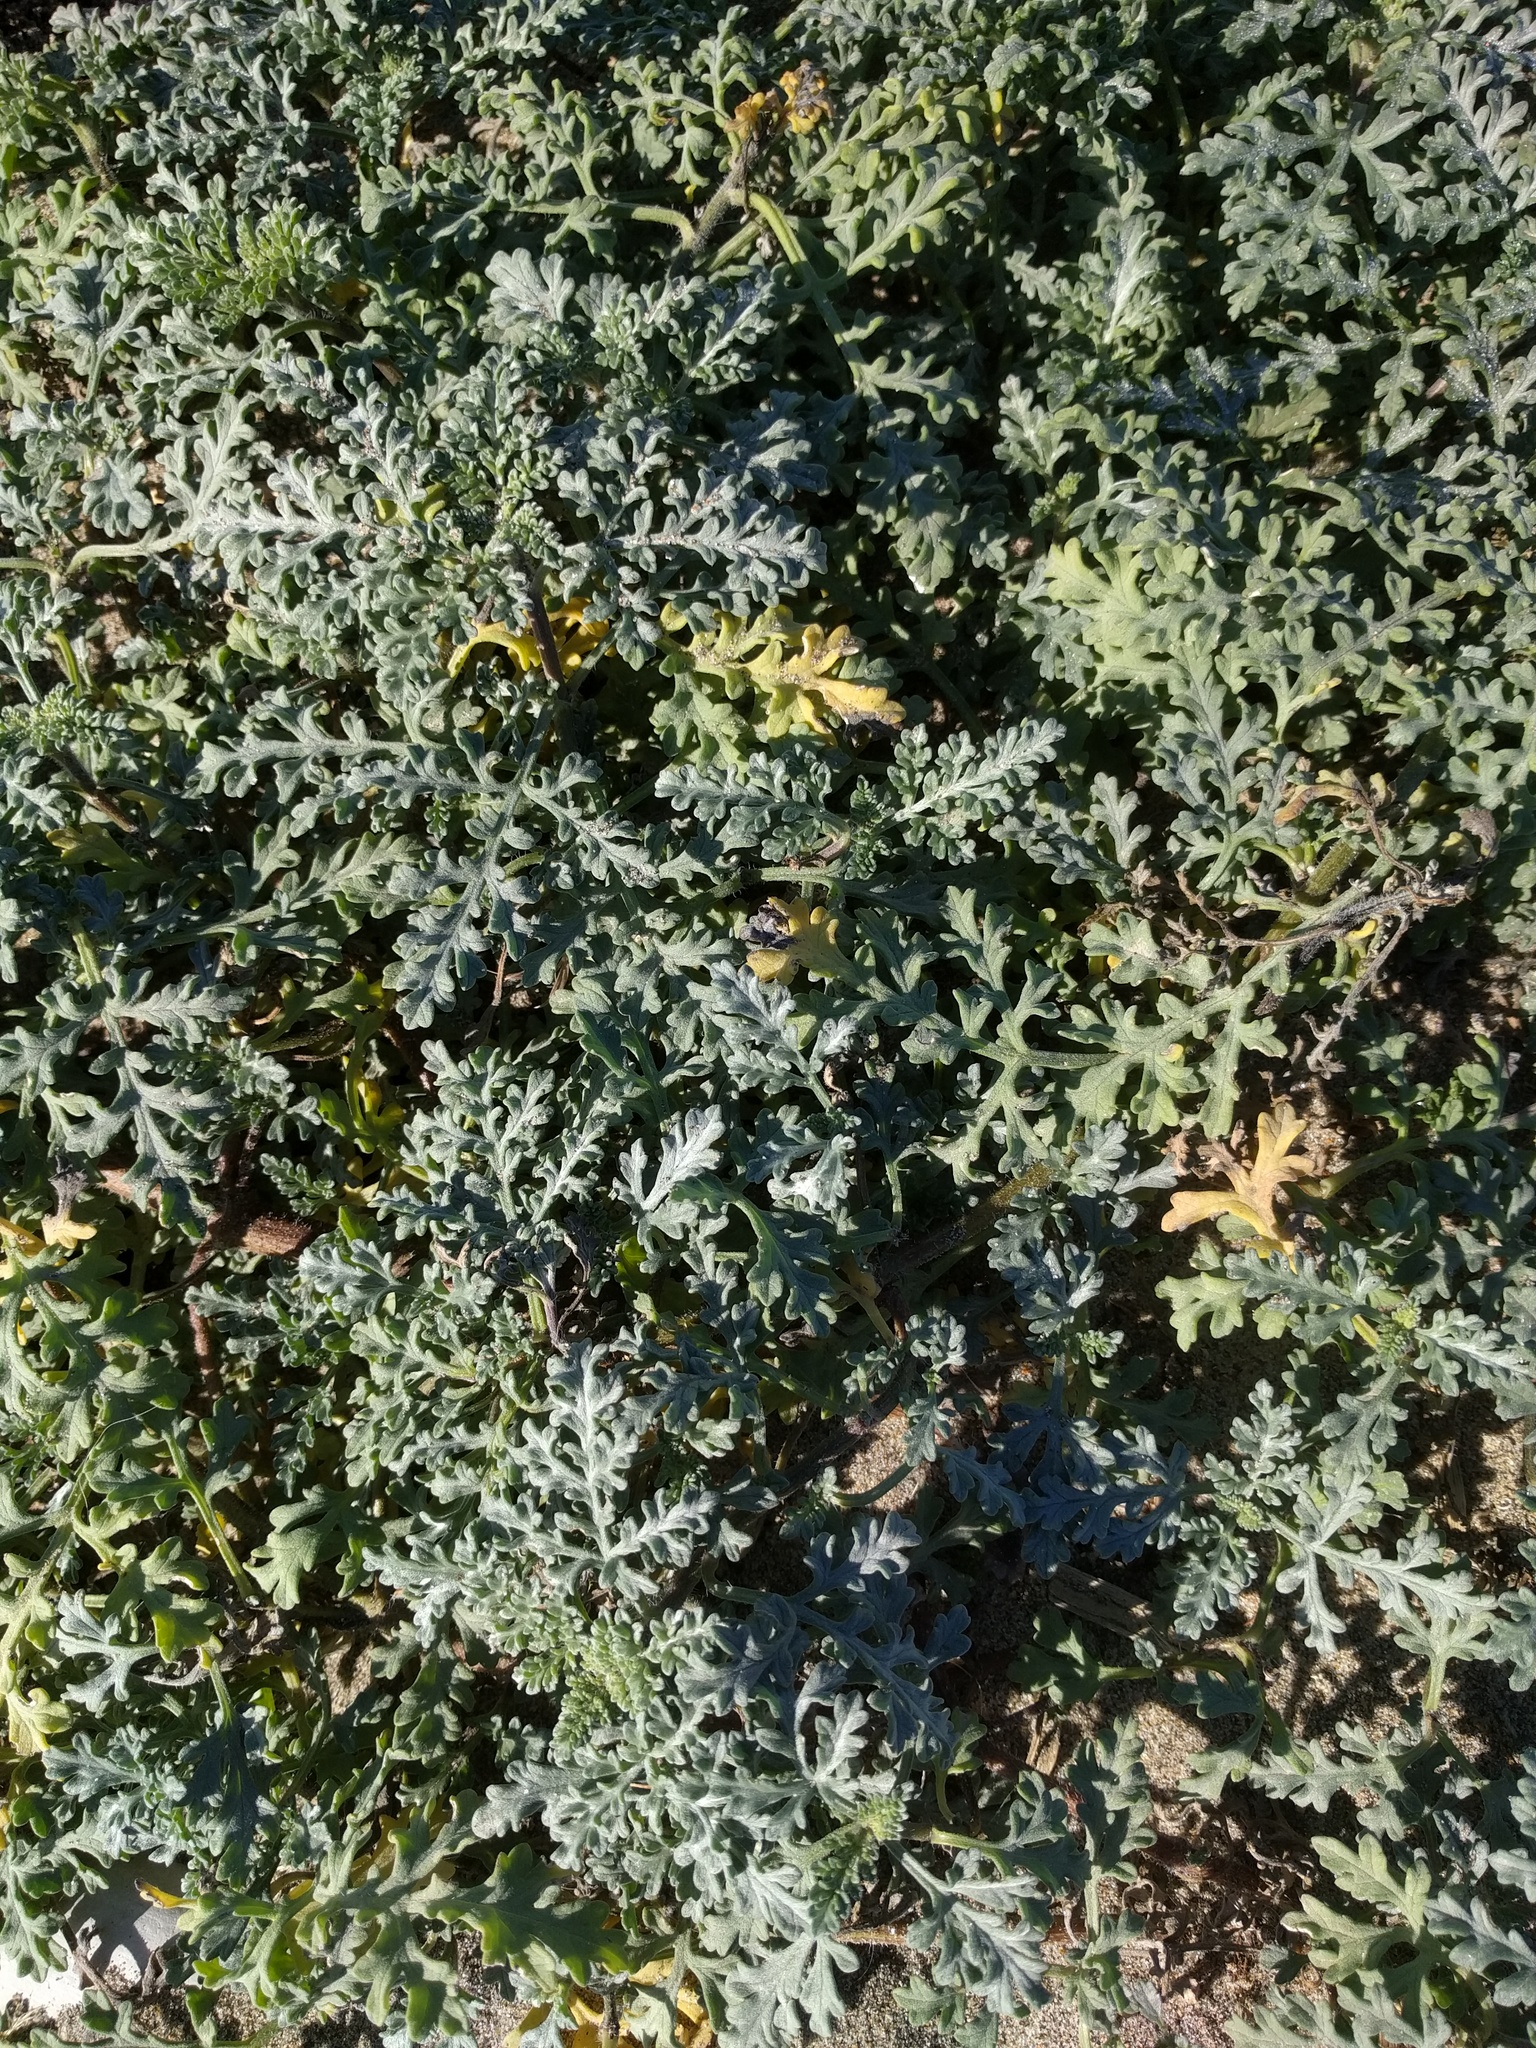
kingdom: Plantae
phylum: Tracheophyta
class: Magnoliopsida
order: Asterales
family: Asteraceae
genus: Ambrosia
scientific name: Ambrosia chamissonis
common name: Beachbur
